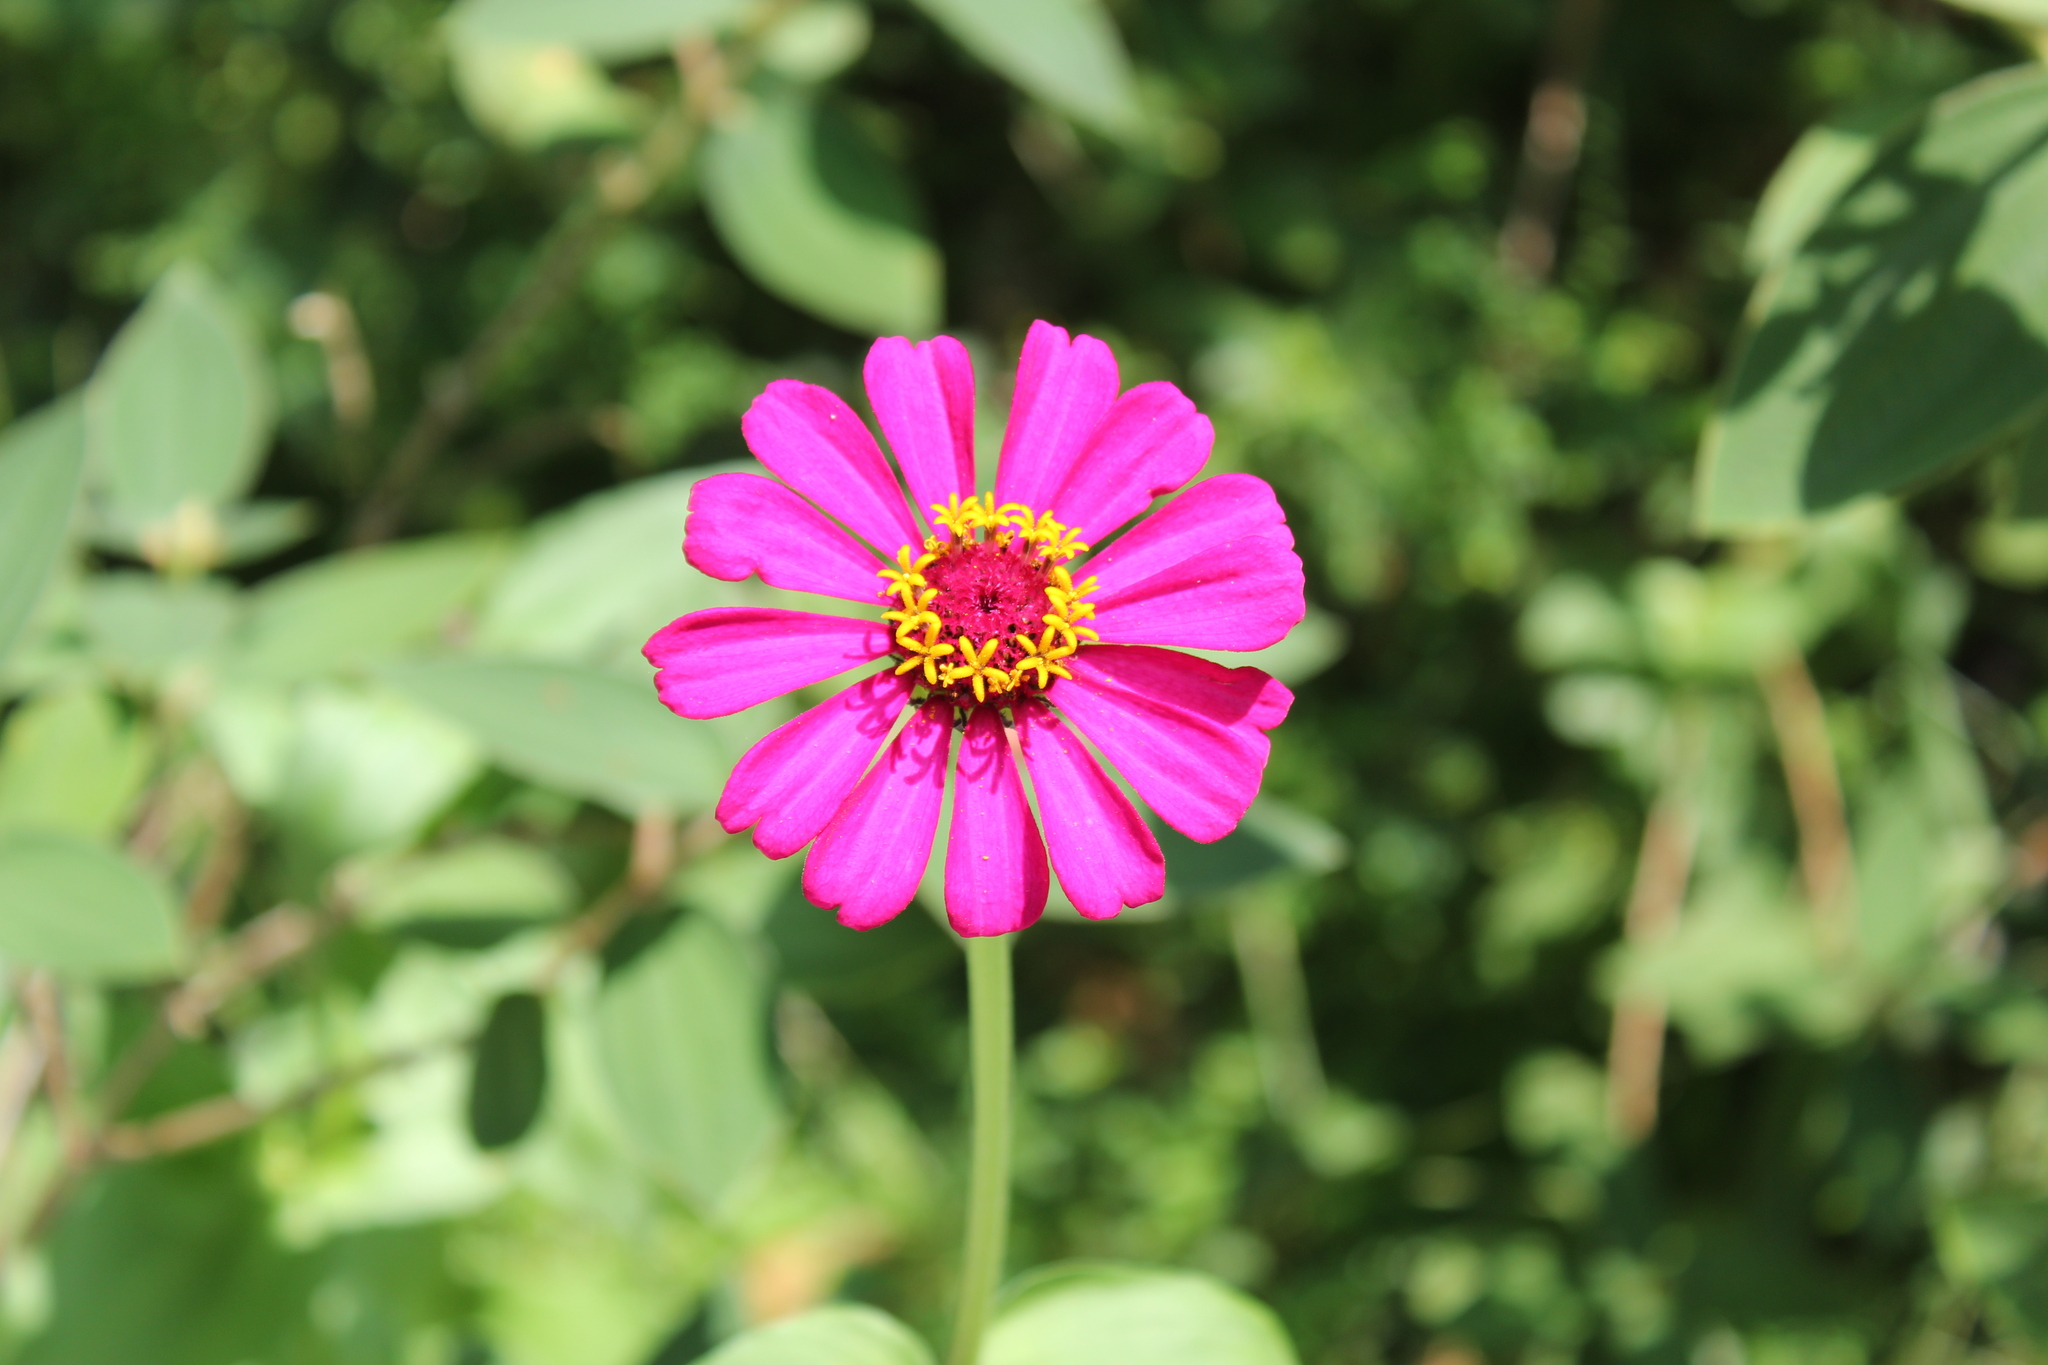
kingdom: Plantae
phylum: Tracheophyta
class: Magnoliopsida
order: Asterales
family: Asteraceae
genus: Zinnia
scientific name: Zinnia elegans
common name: Youth-and-age
